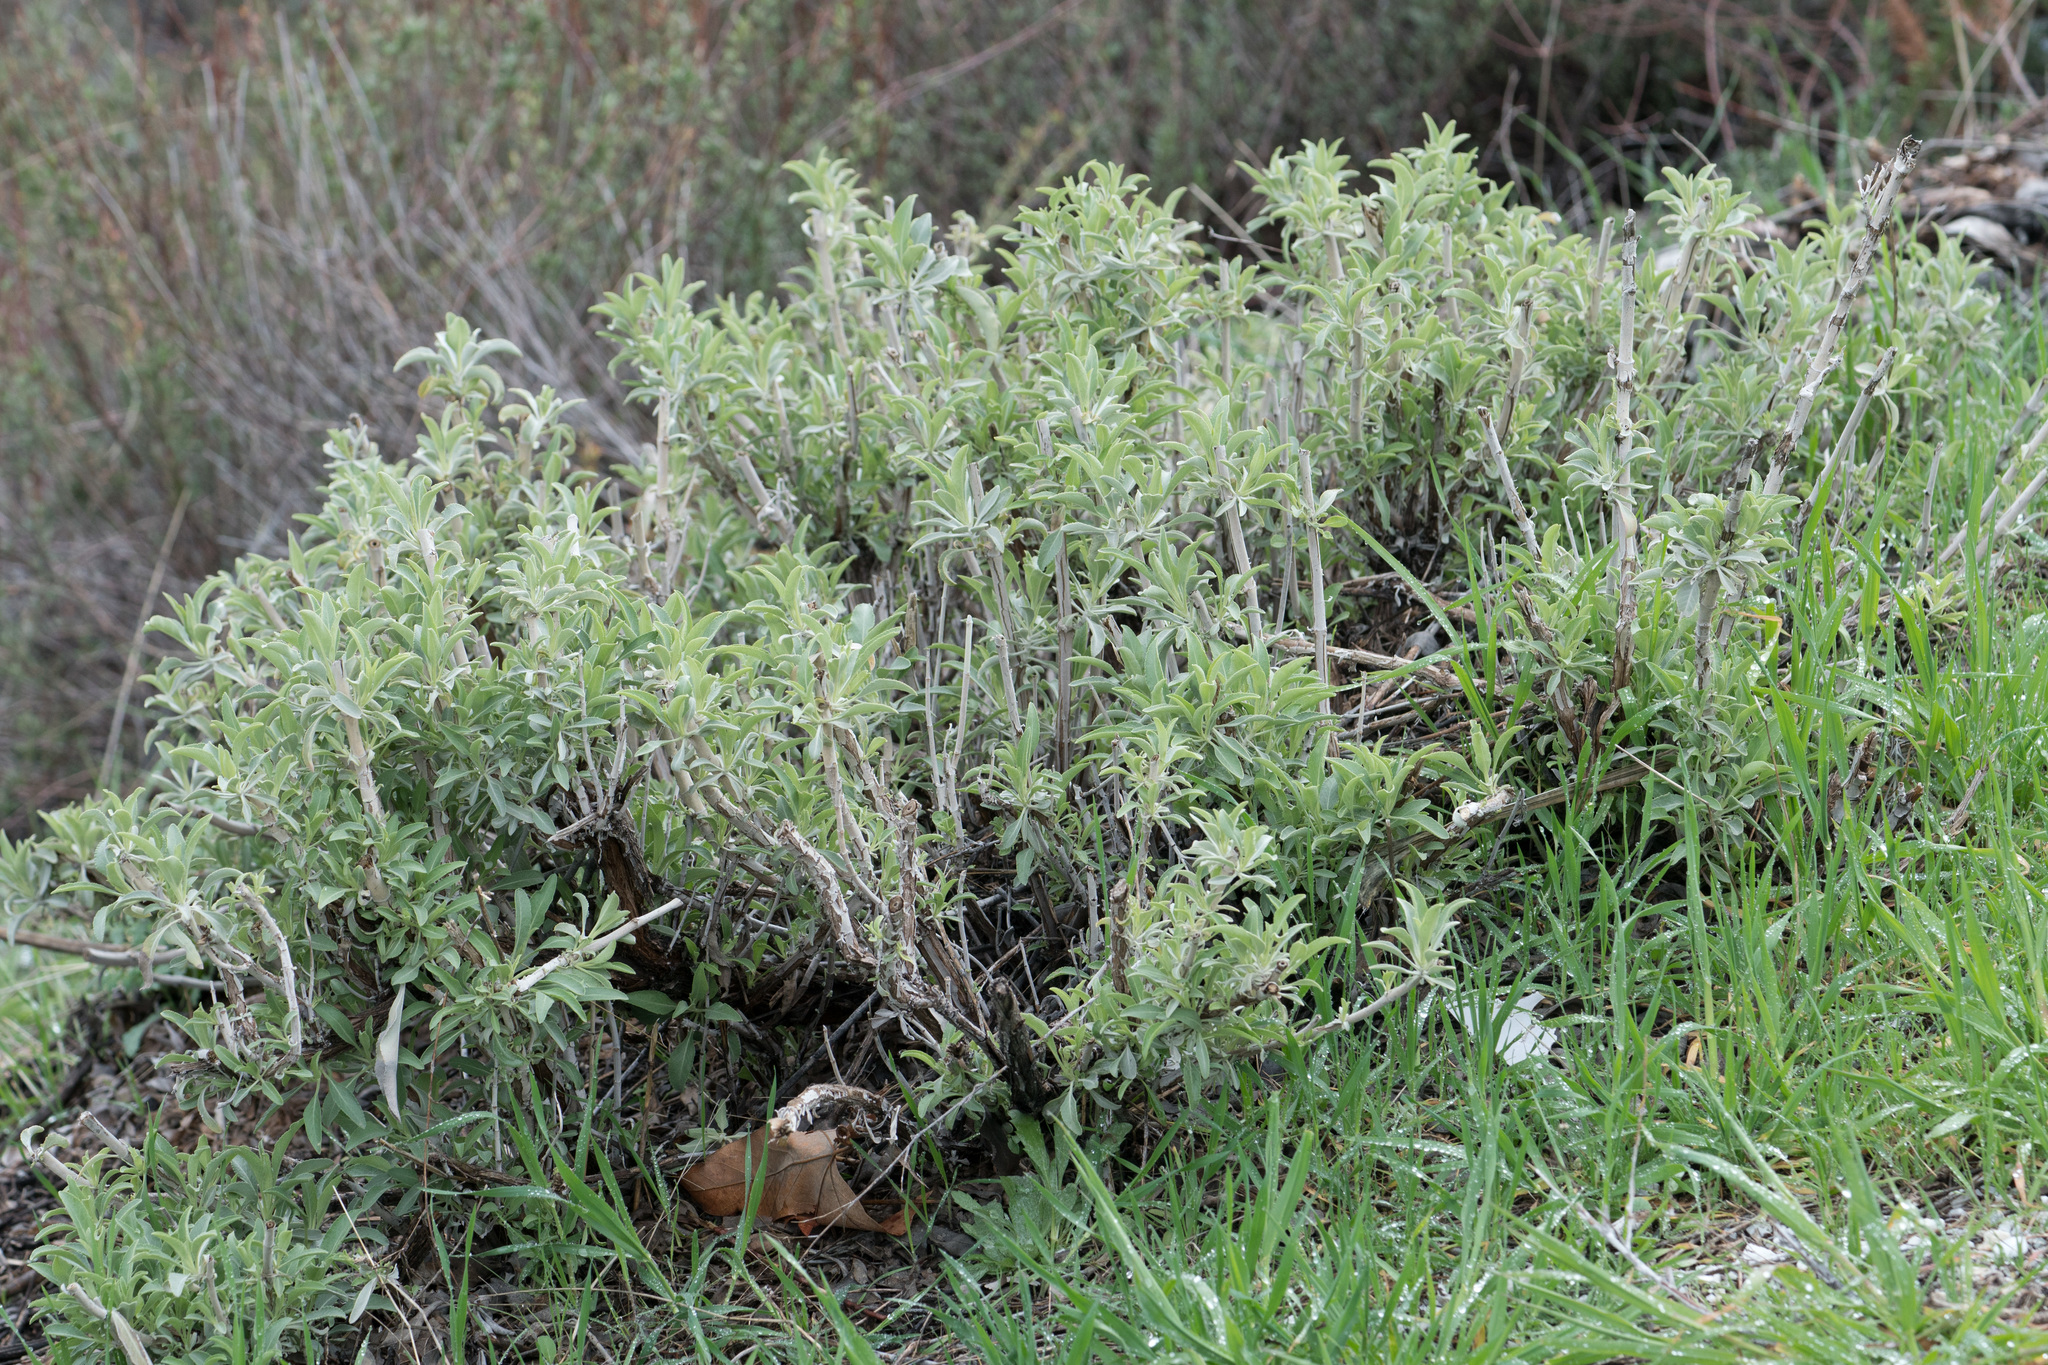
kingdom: Plantae
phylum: Tracheophyta
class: Magnoliopsida
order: Lamiales
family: Lamiaceae
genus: Salvia
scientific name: Salvia apiana
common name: White sage
